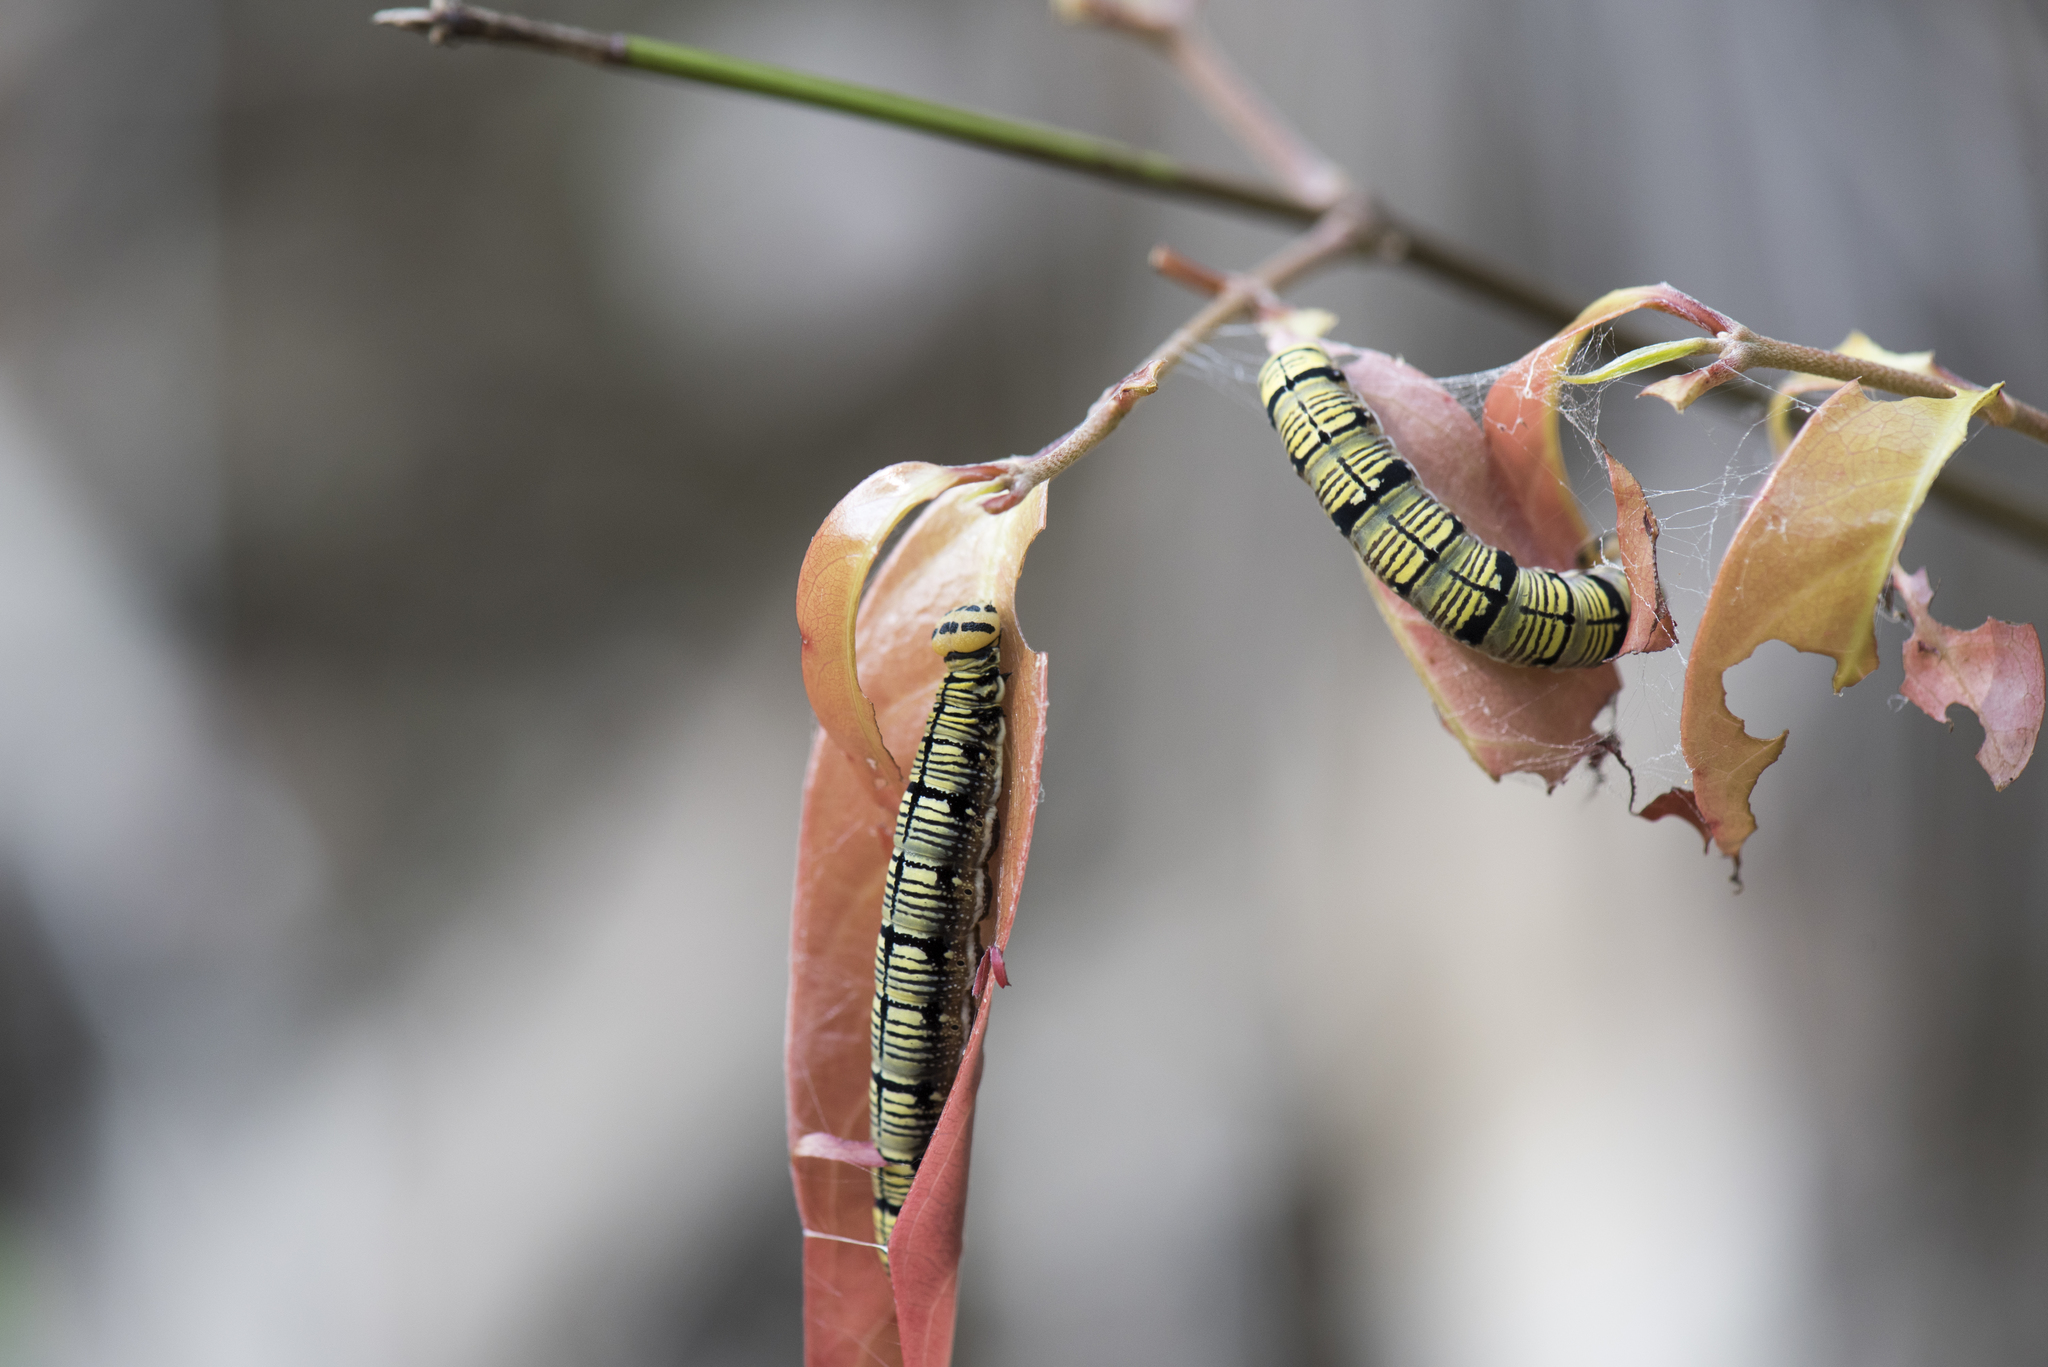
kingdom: Animalia
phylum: Arthropoda
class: Insecta
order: Lepidoptera
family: Hesperiidae
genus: Badamia
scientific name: Badamia exclamationis
